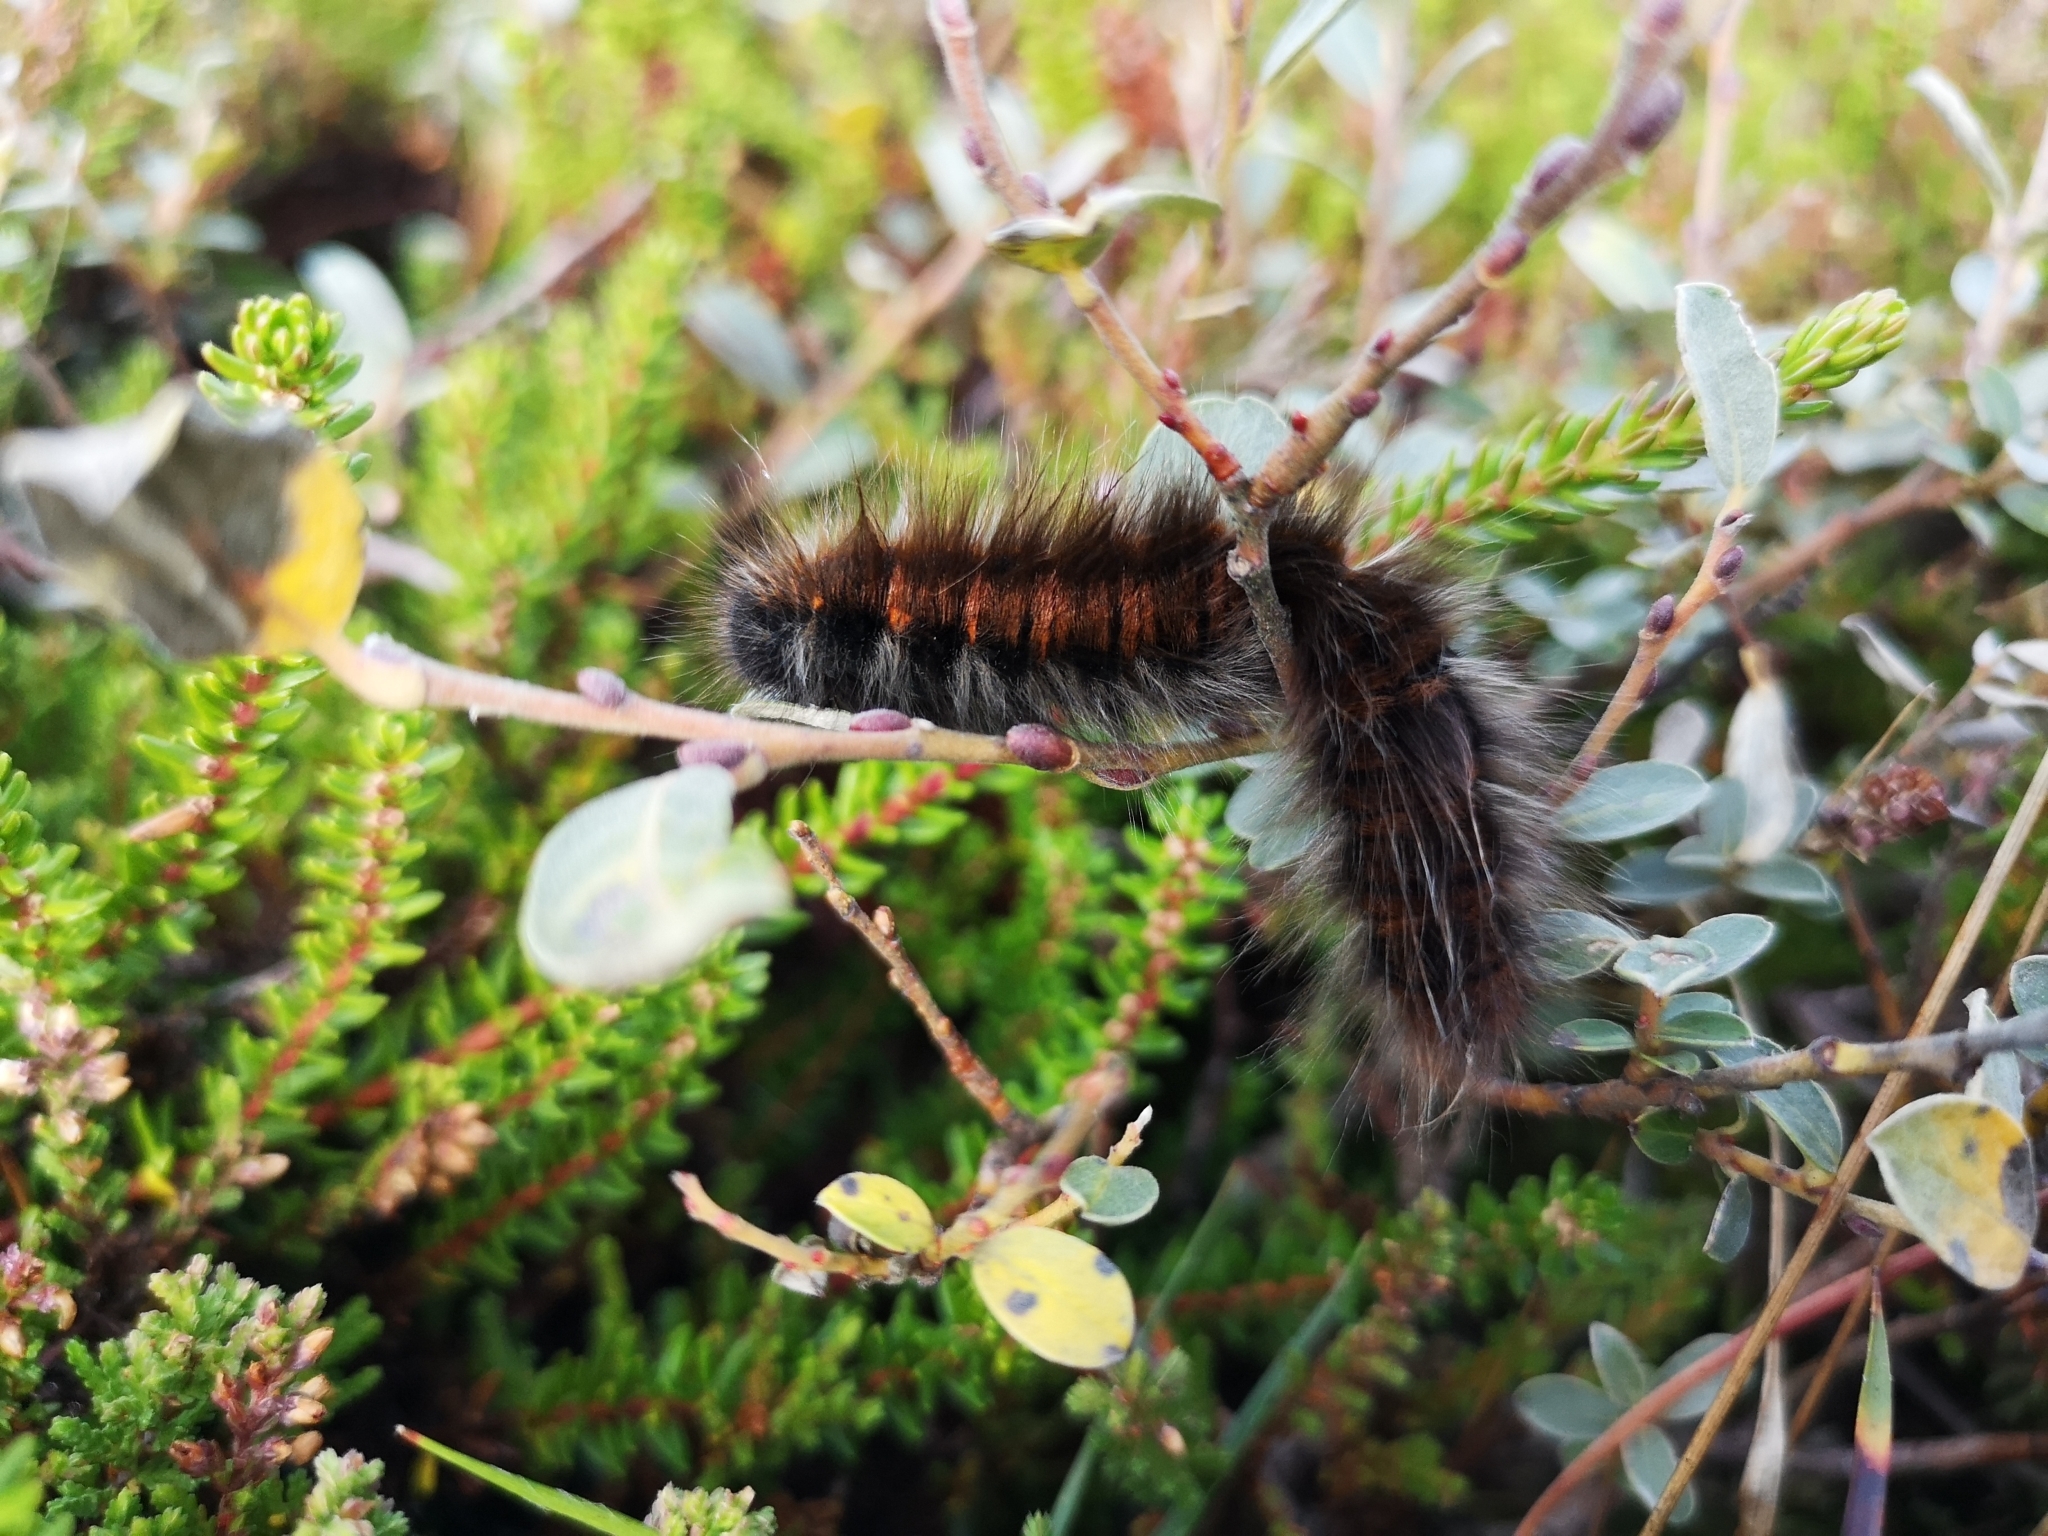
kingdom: Animalia
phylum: Arthropoda
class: Insecta
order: Lepidoptera
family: Lasiocampidae
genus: Macrothylacia
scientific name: Macrothylacia rubi
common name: Fox moth
